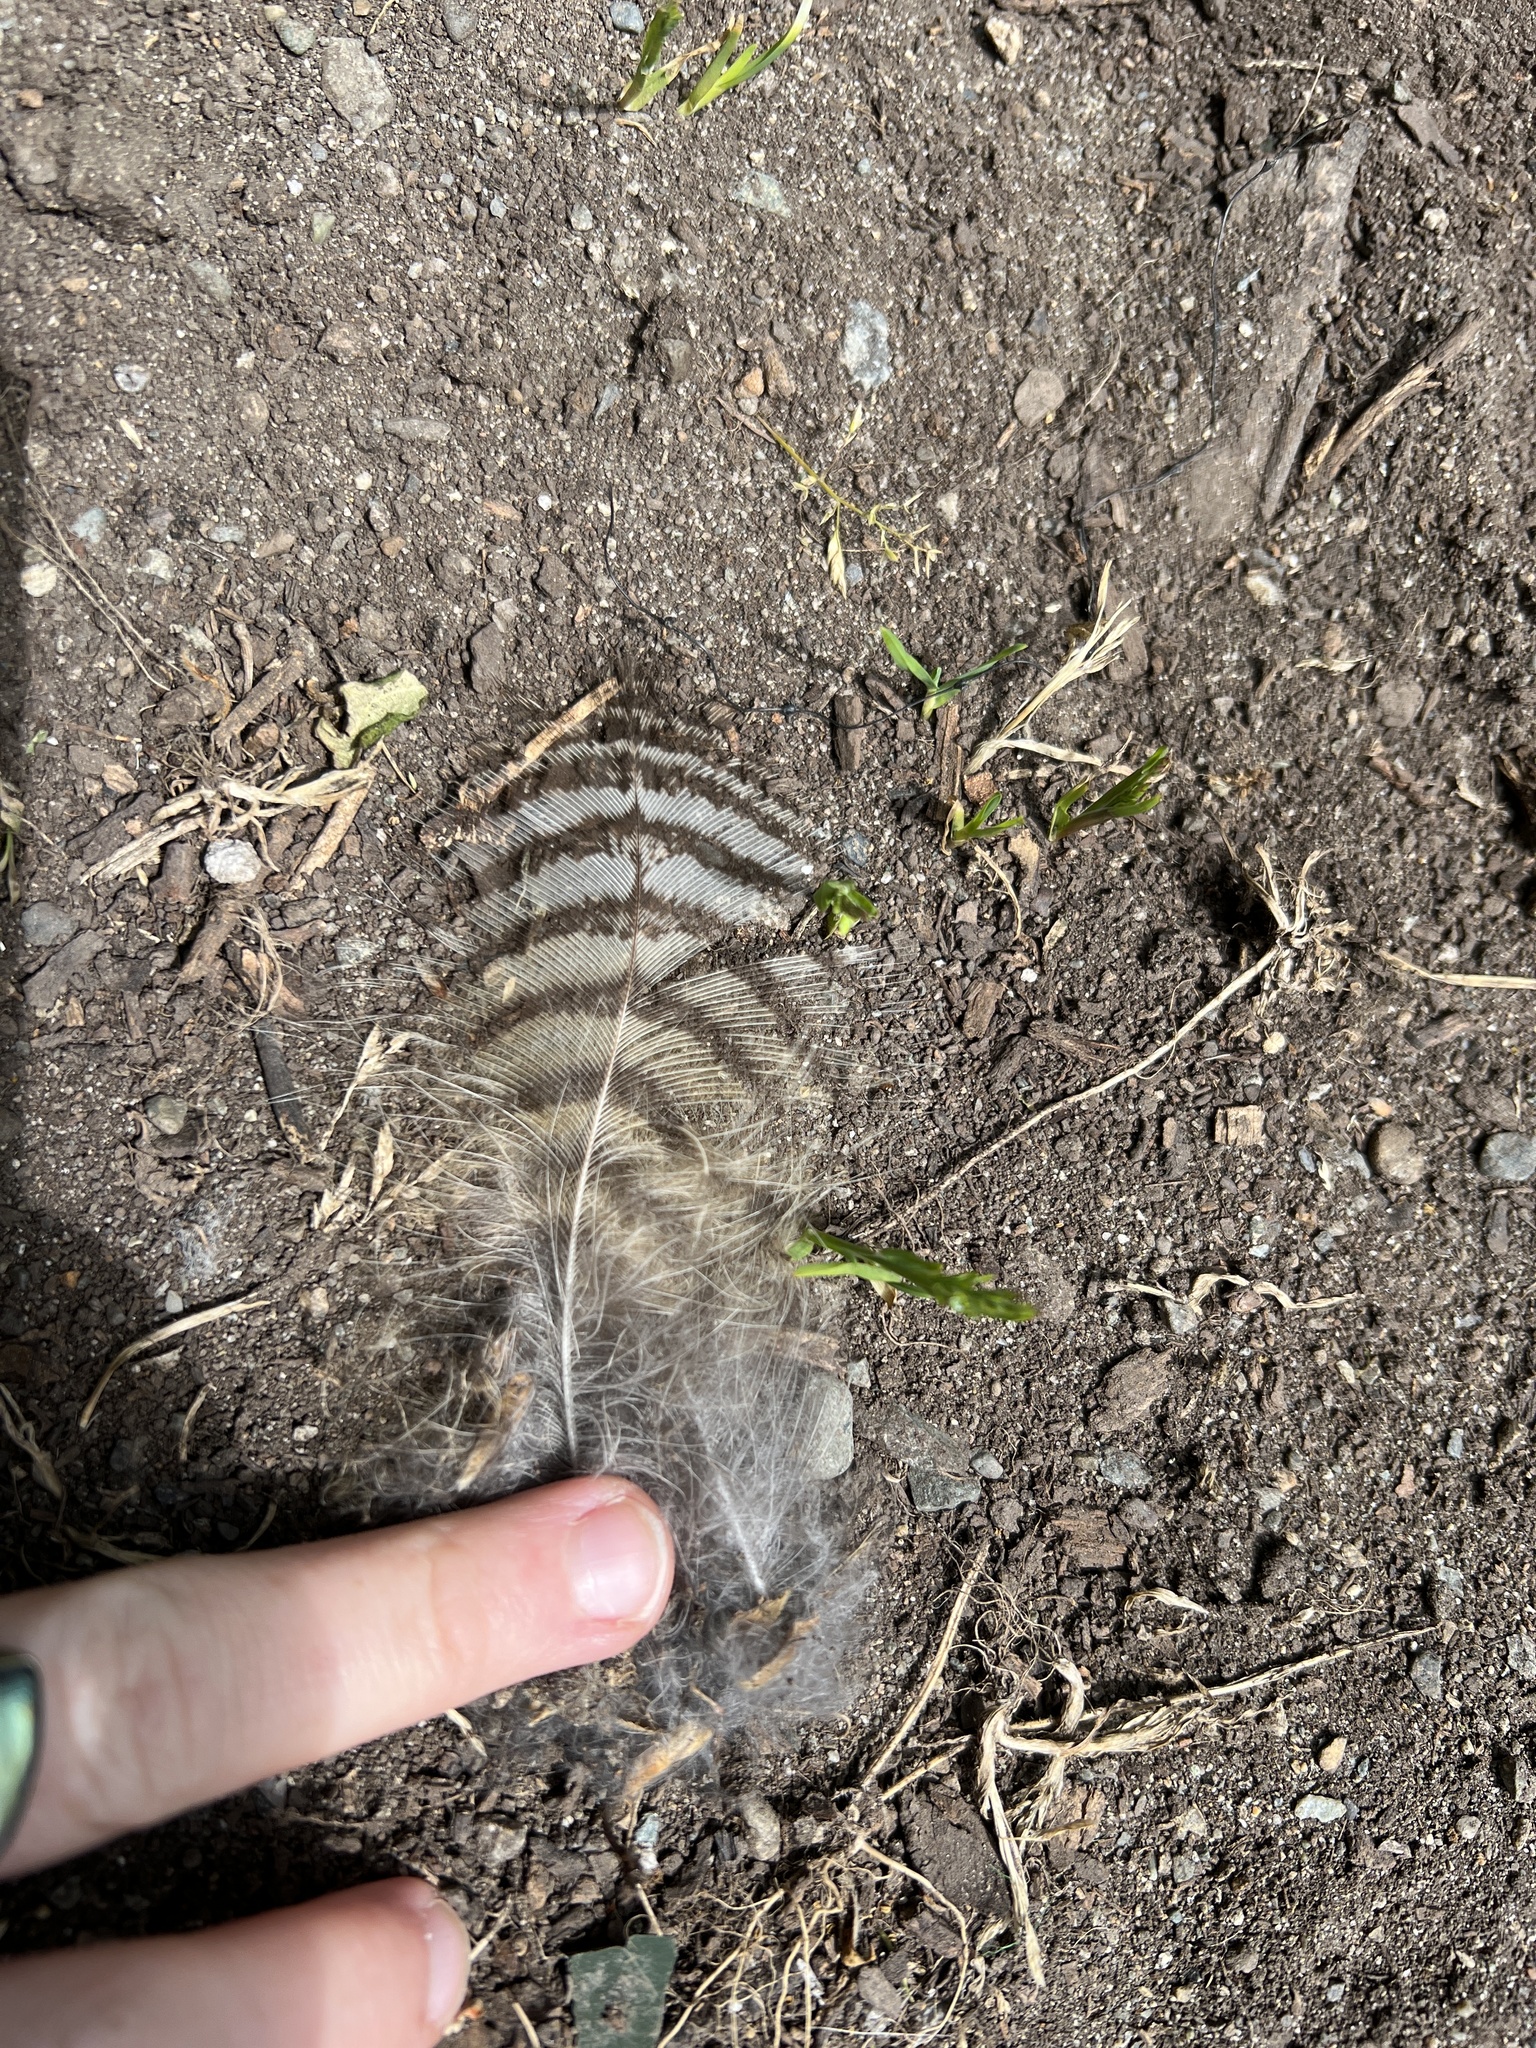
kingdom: Animalia
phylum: Chordata
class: Aves
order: Strigiformes
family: Strigidae
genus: Bubo
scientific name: Bubo virginianus
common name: Great horned owl
